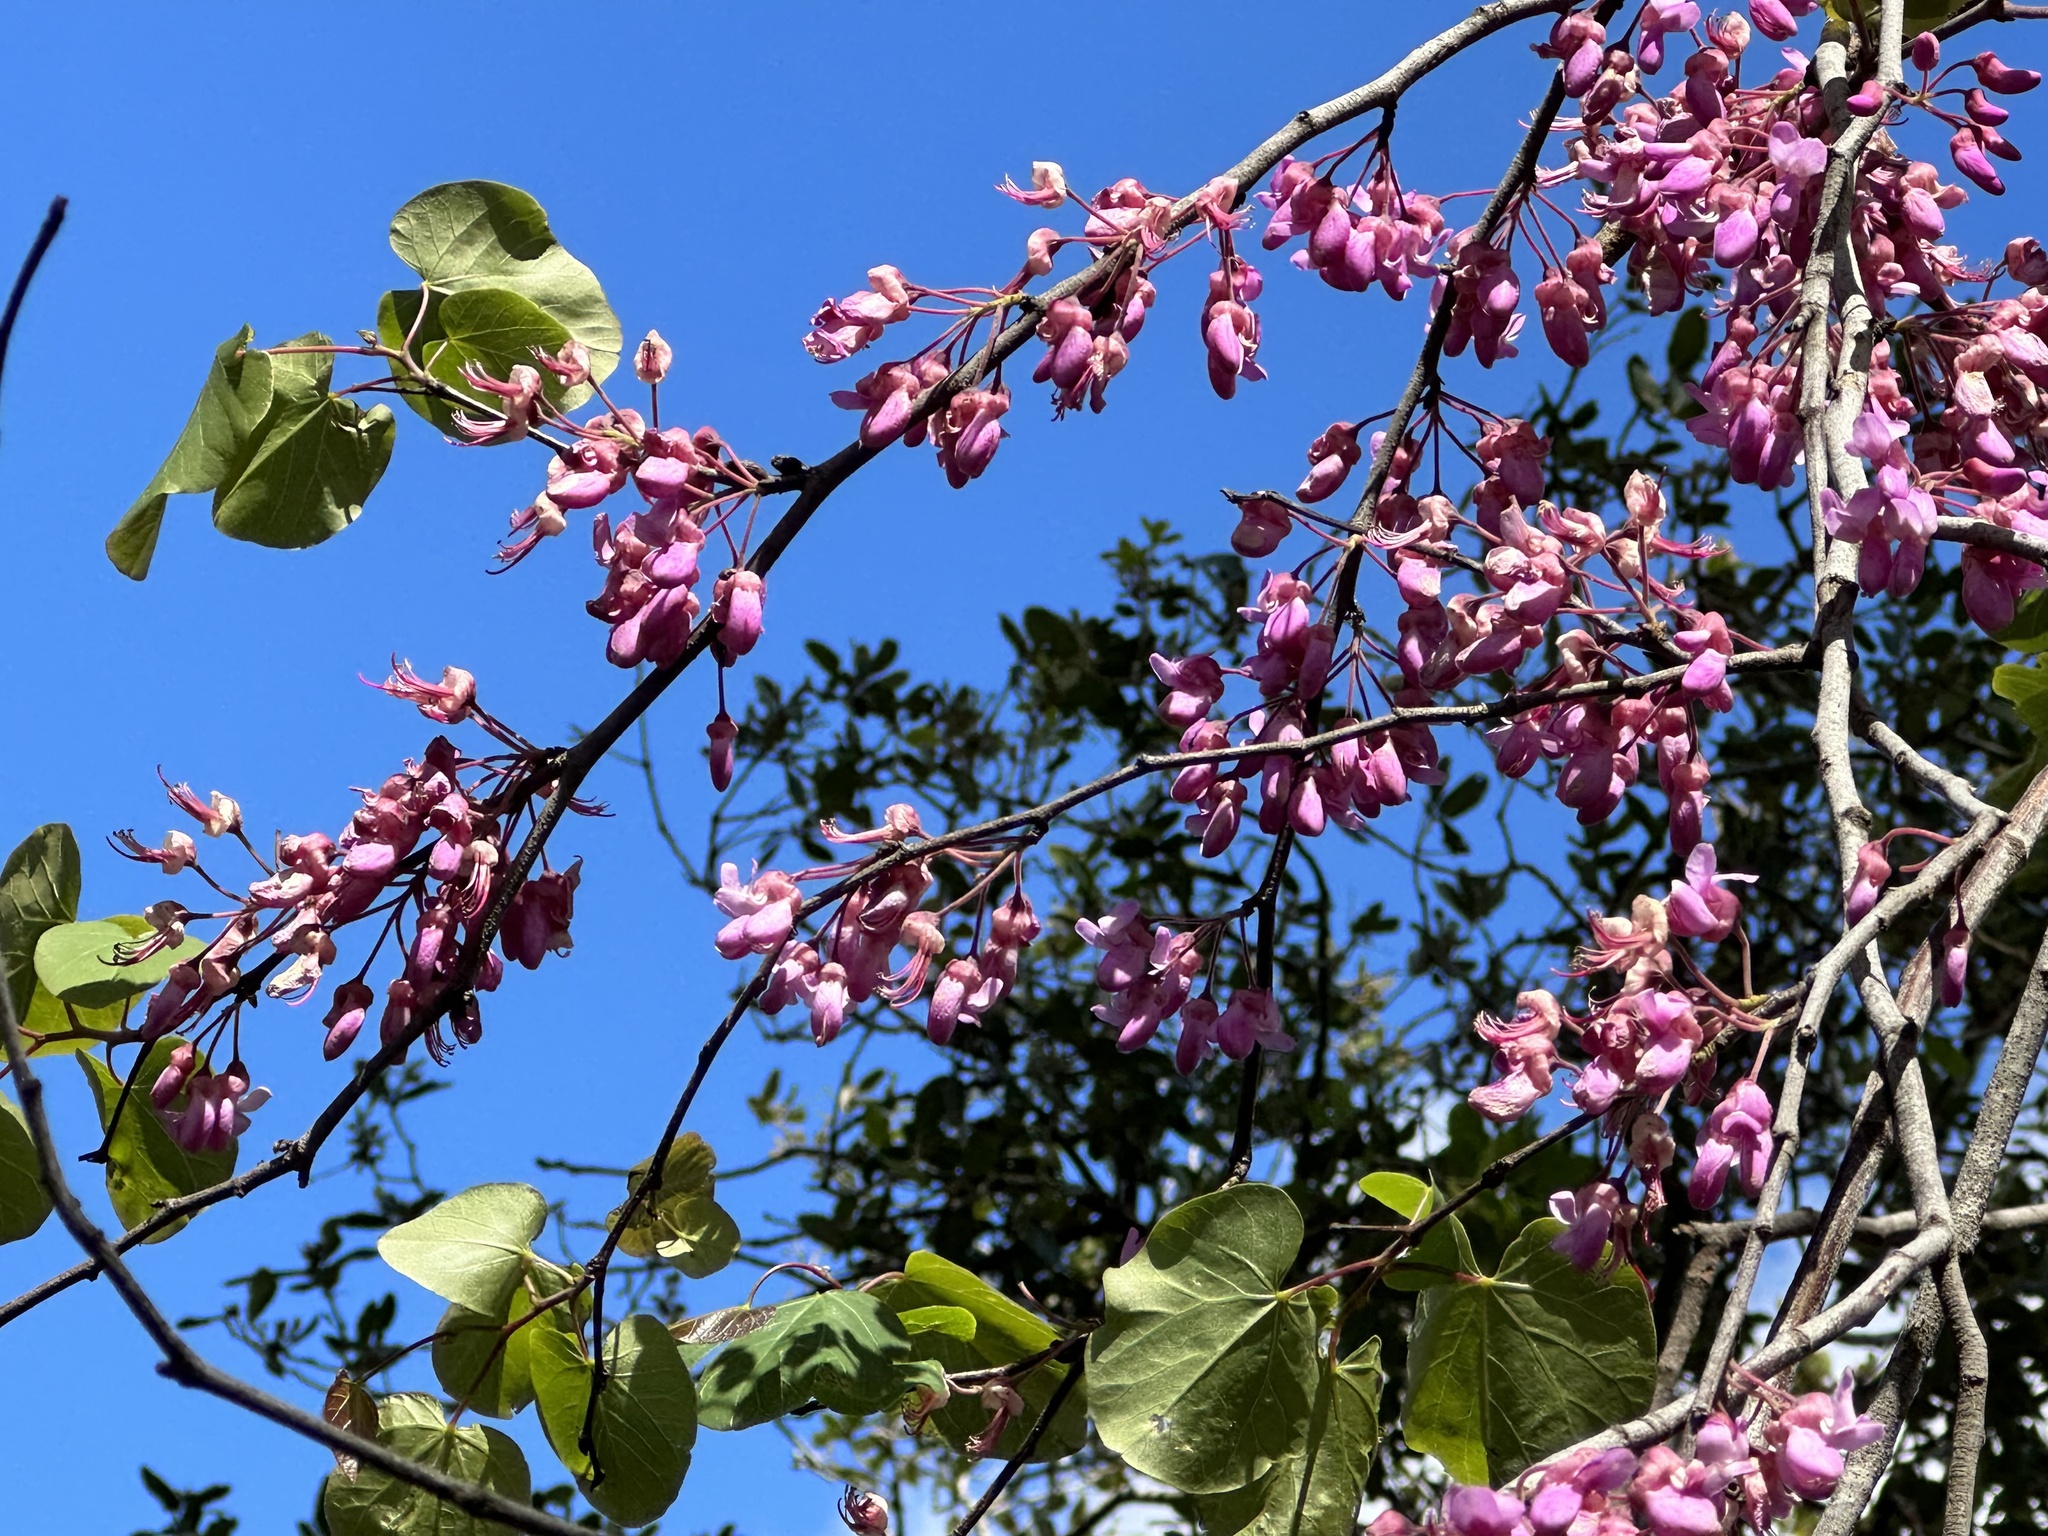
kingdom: Plantae
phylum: Tracheophyta
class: Magnoliopsida
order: Fabales
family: Fabaceae
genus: Cercis
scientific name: Cercis siliquastrum
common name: Judas tree
